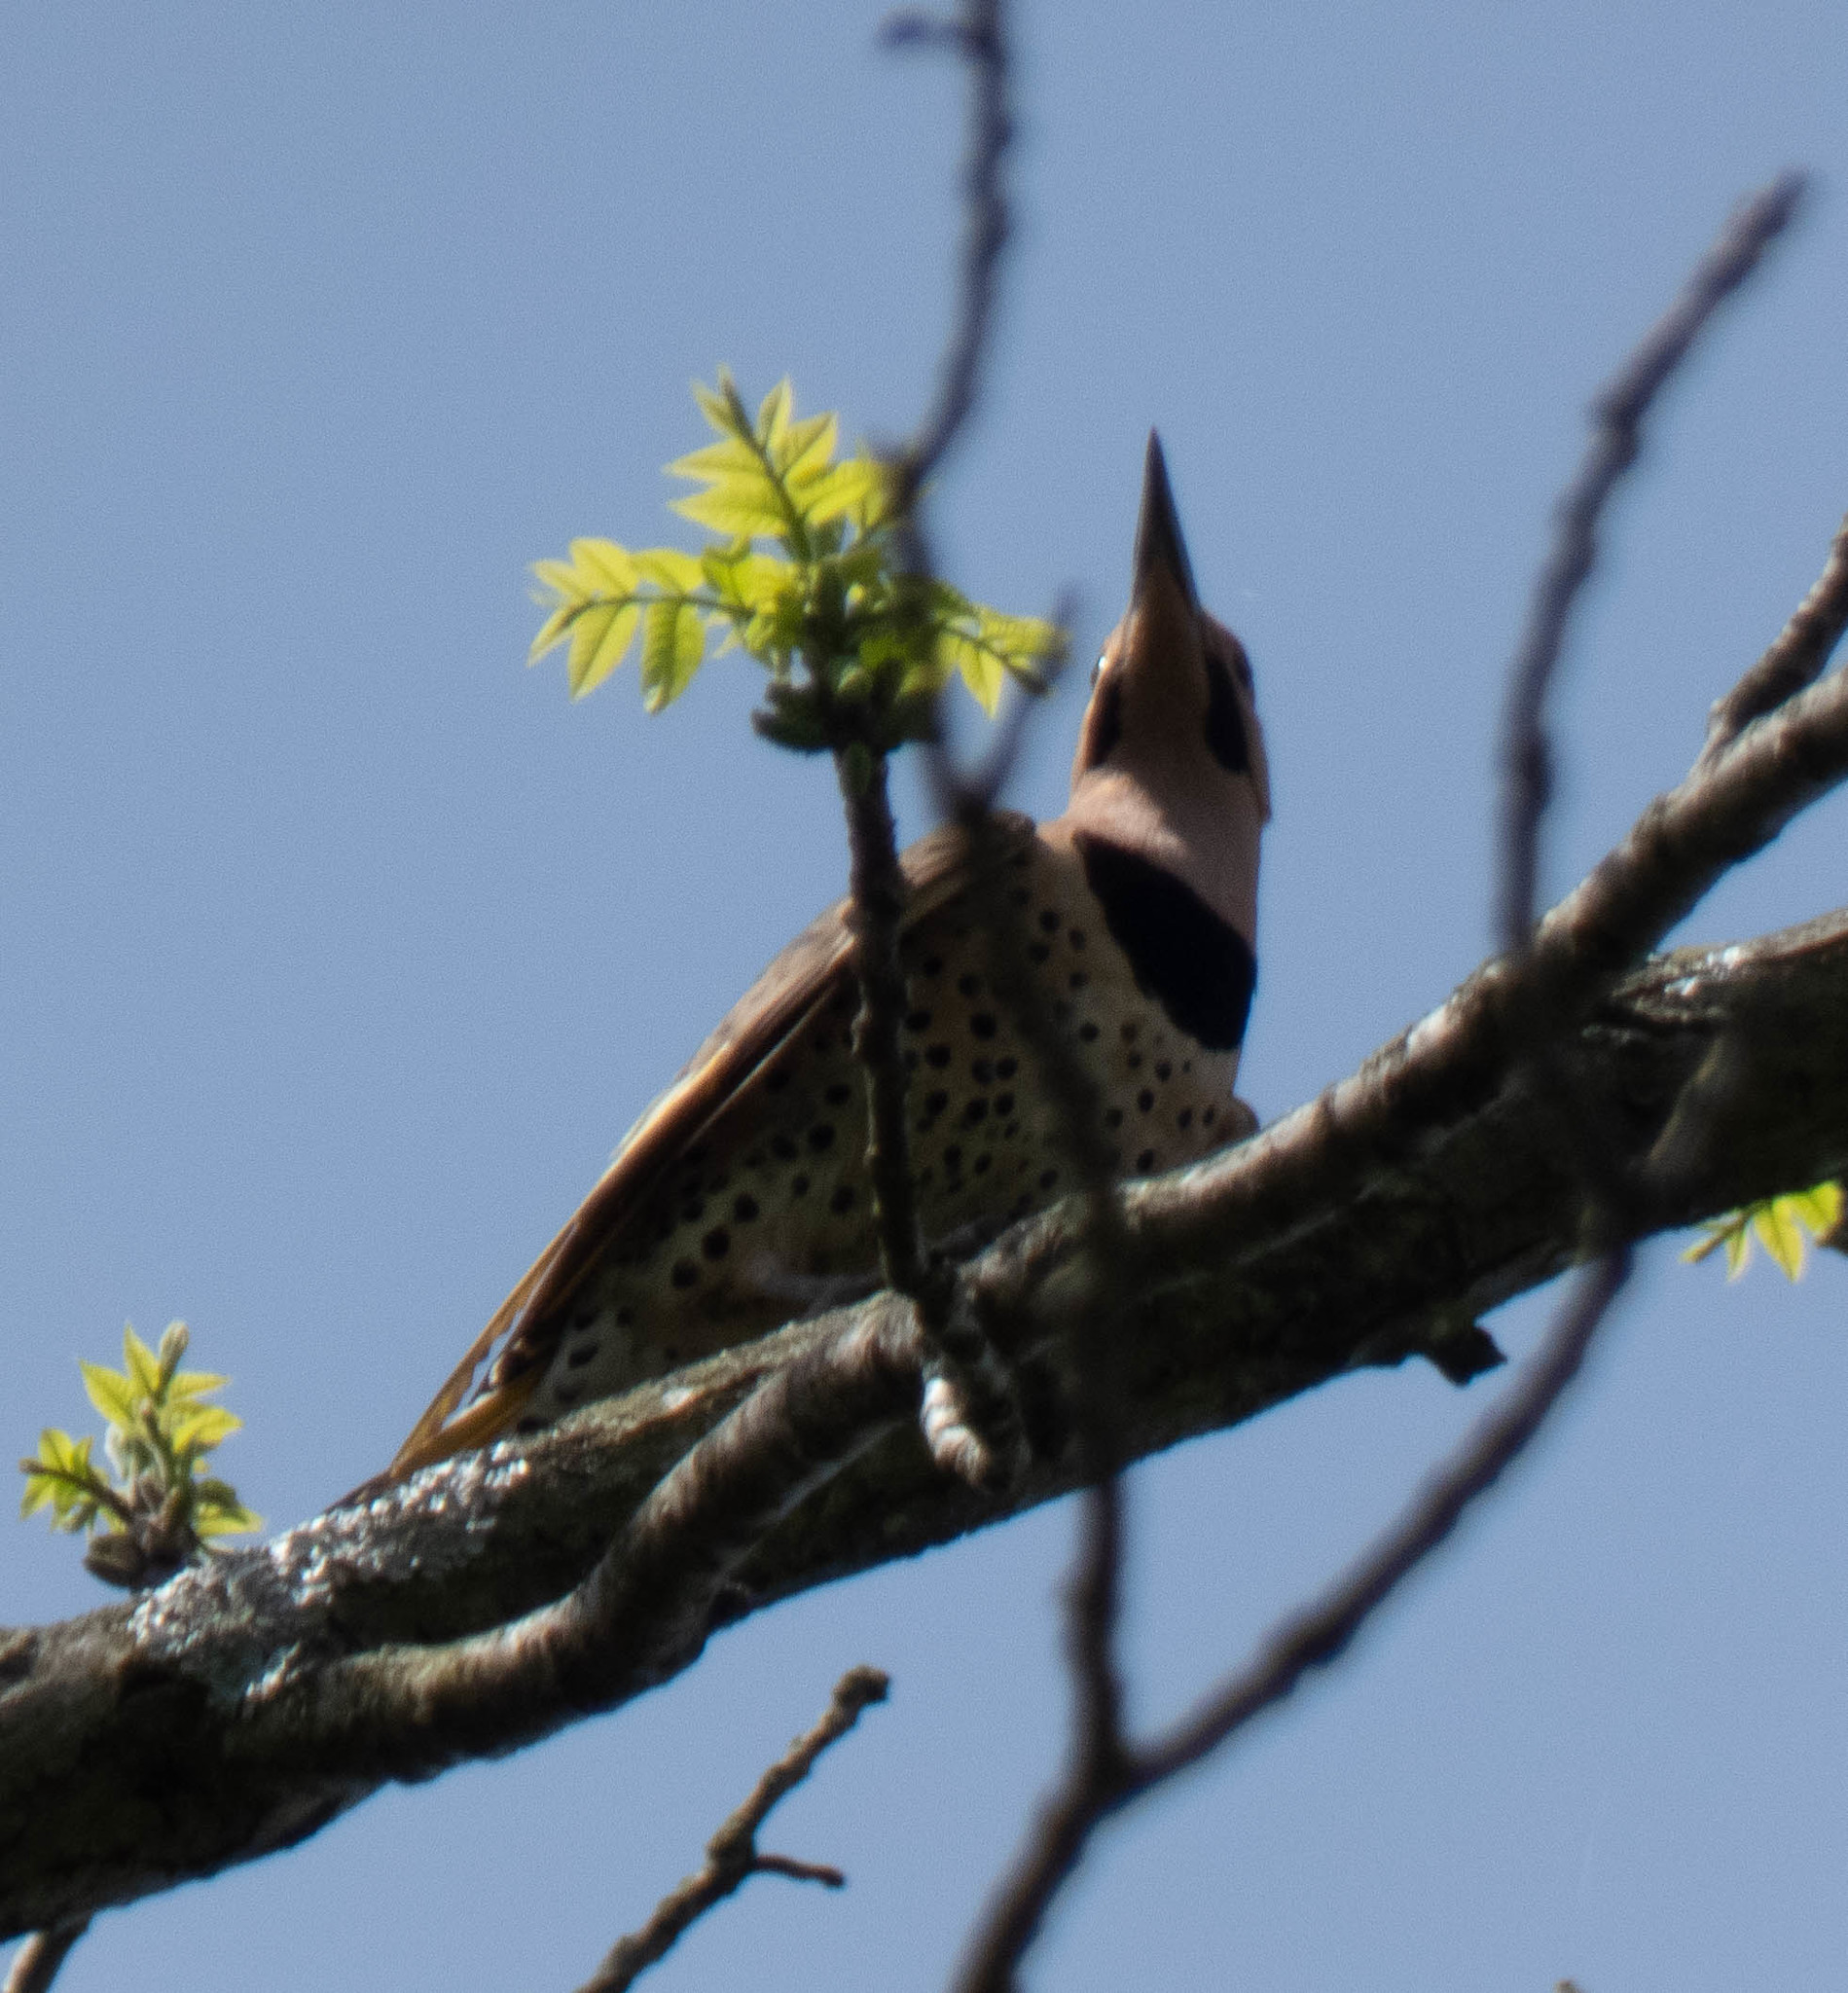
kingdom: Animalia
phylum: Chordata
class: Aves
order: Piciformes
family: Picidae
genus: Colaptes
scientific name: Colaptes auratus
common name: Northern flicker
